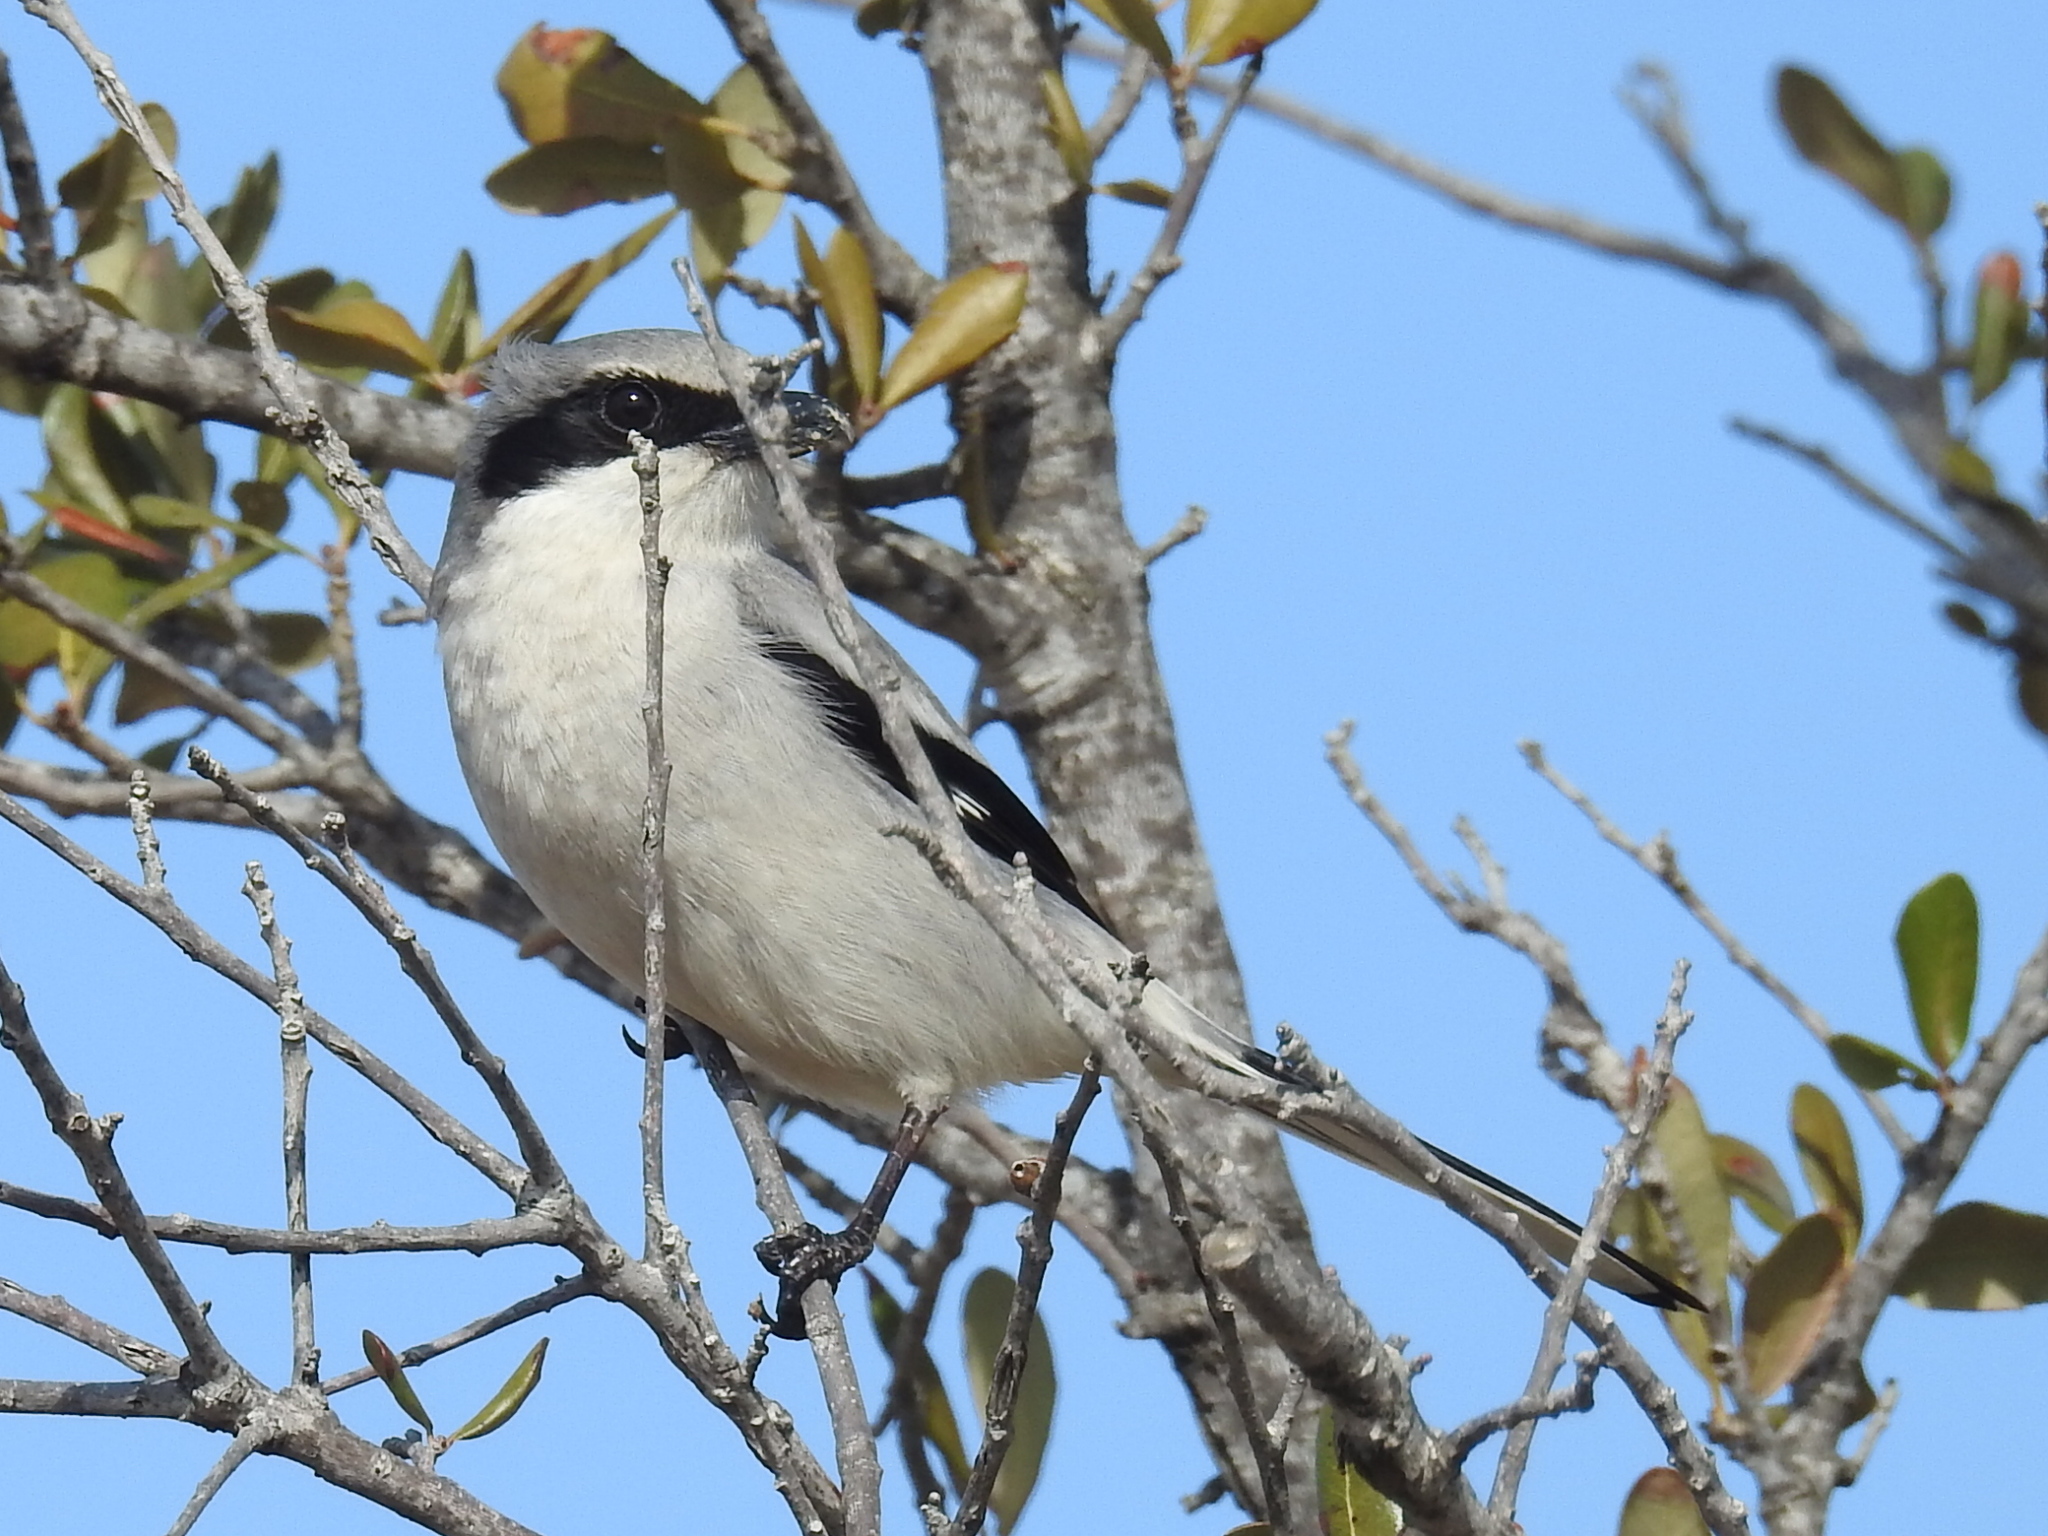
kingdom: Animalia
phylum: Chordata
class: Aves
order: Passeriformes
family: Laniidae
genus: Lanius
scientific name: Lanius ludovicianus
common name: Loggerhead shrike
